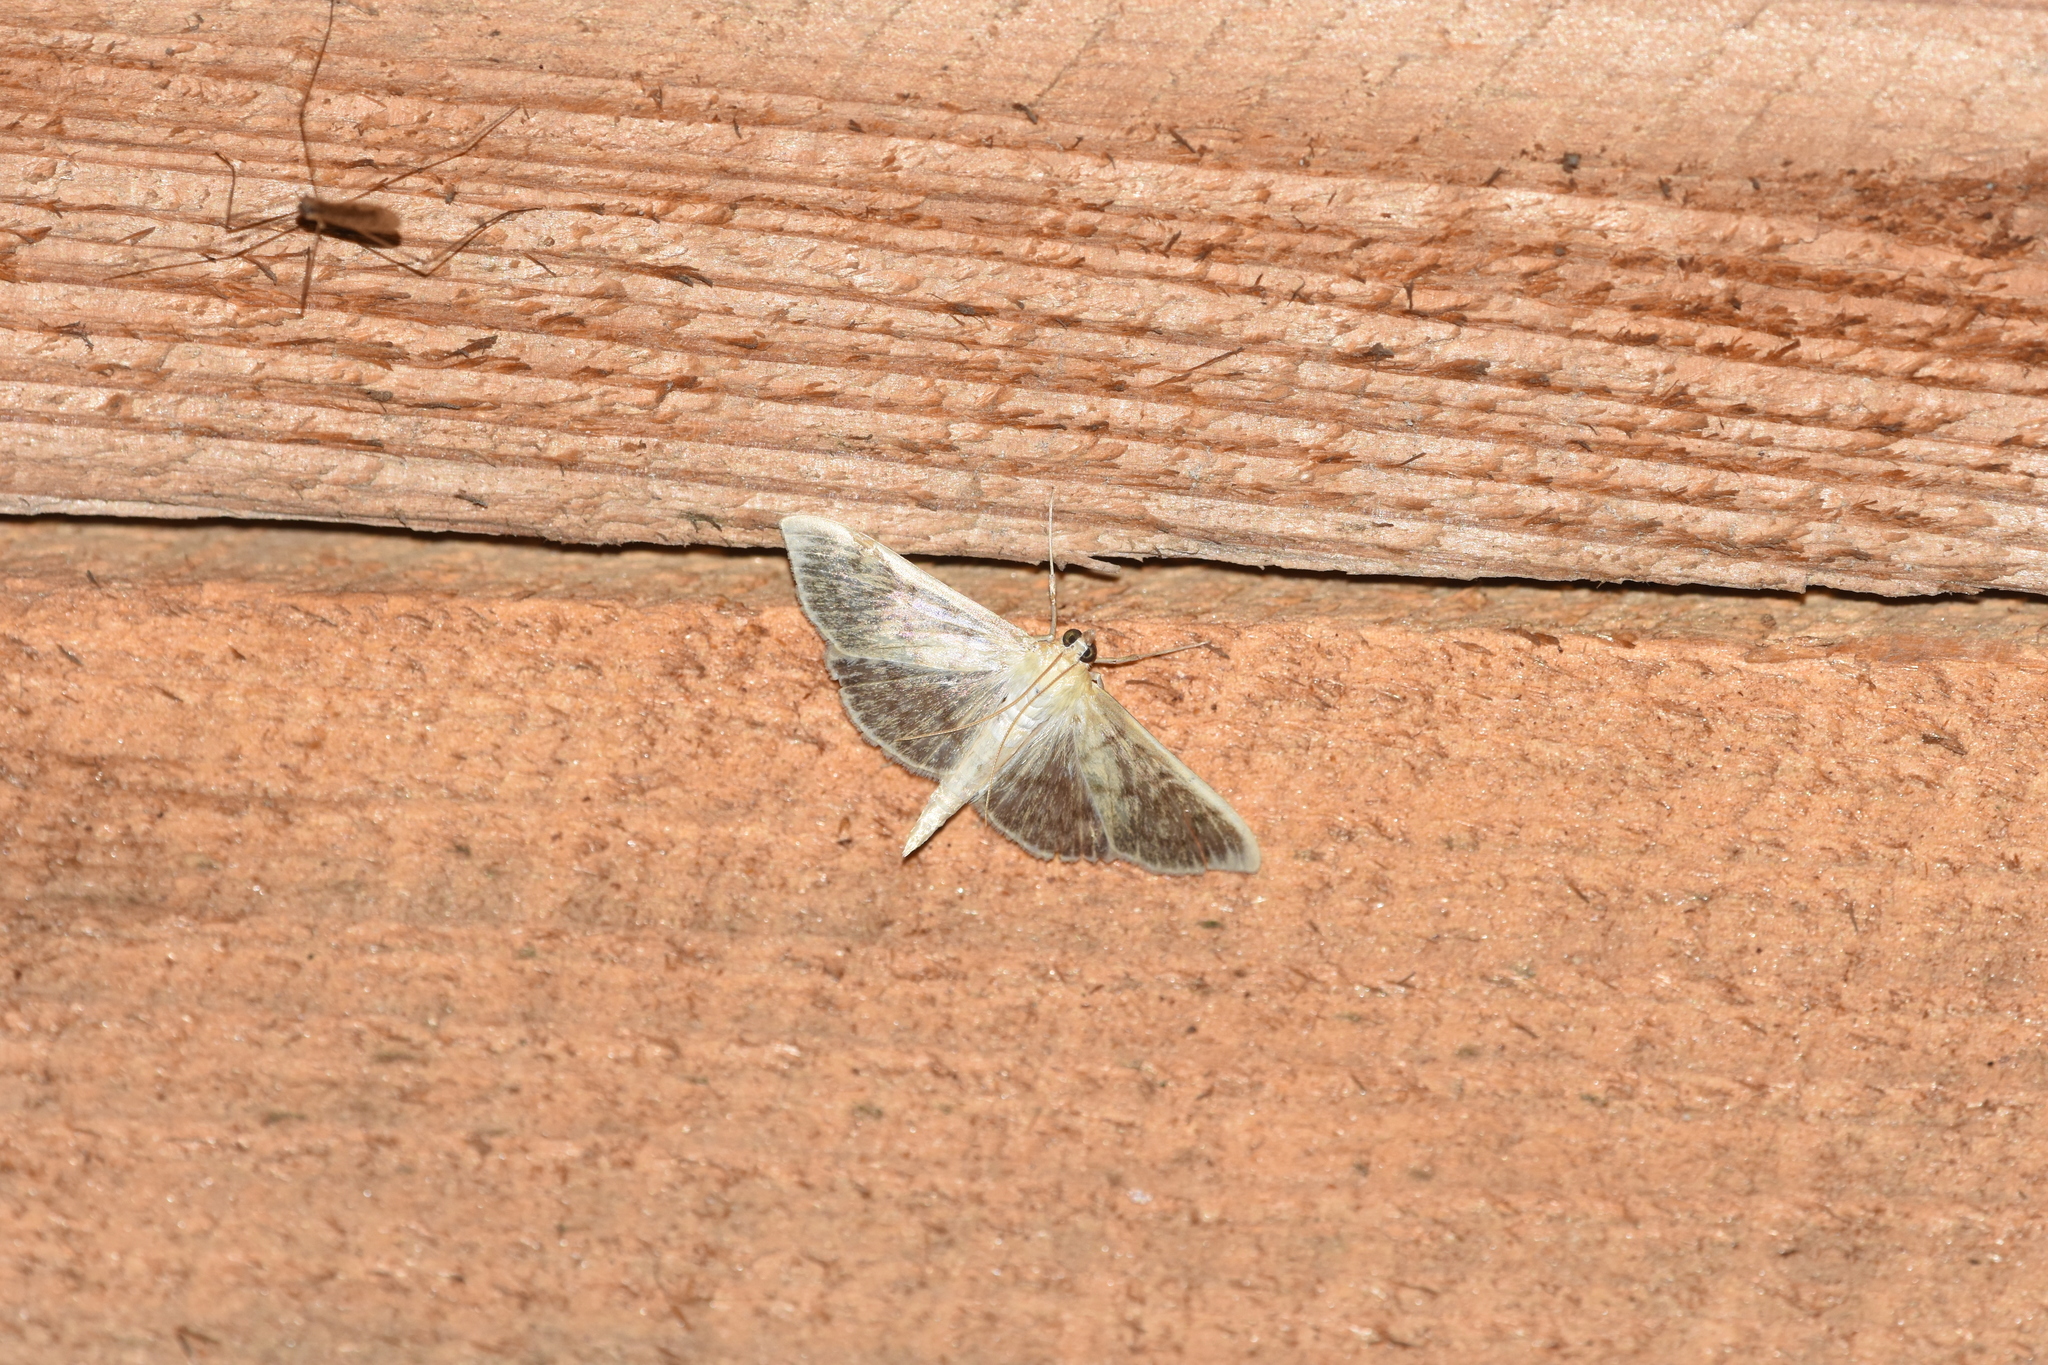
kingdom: Animalia
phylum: Arthropoda
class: Insecta
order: Lepidoptera
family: Crambidae
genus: Patania
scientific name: Patania ruralis
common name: Mother of pearl
